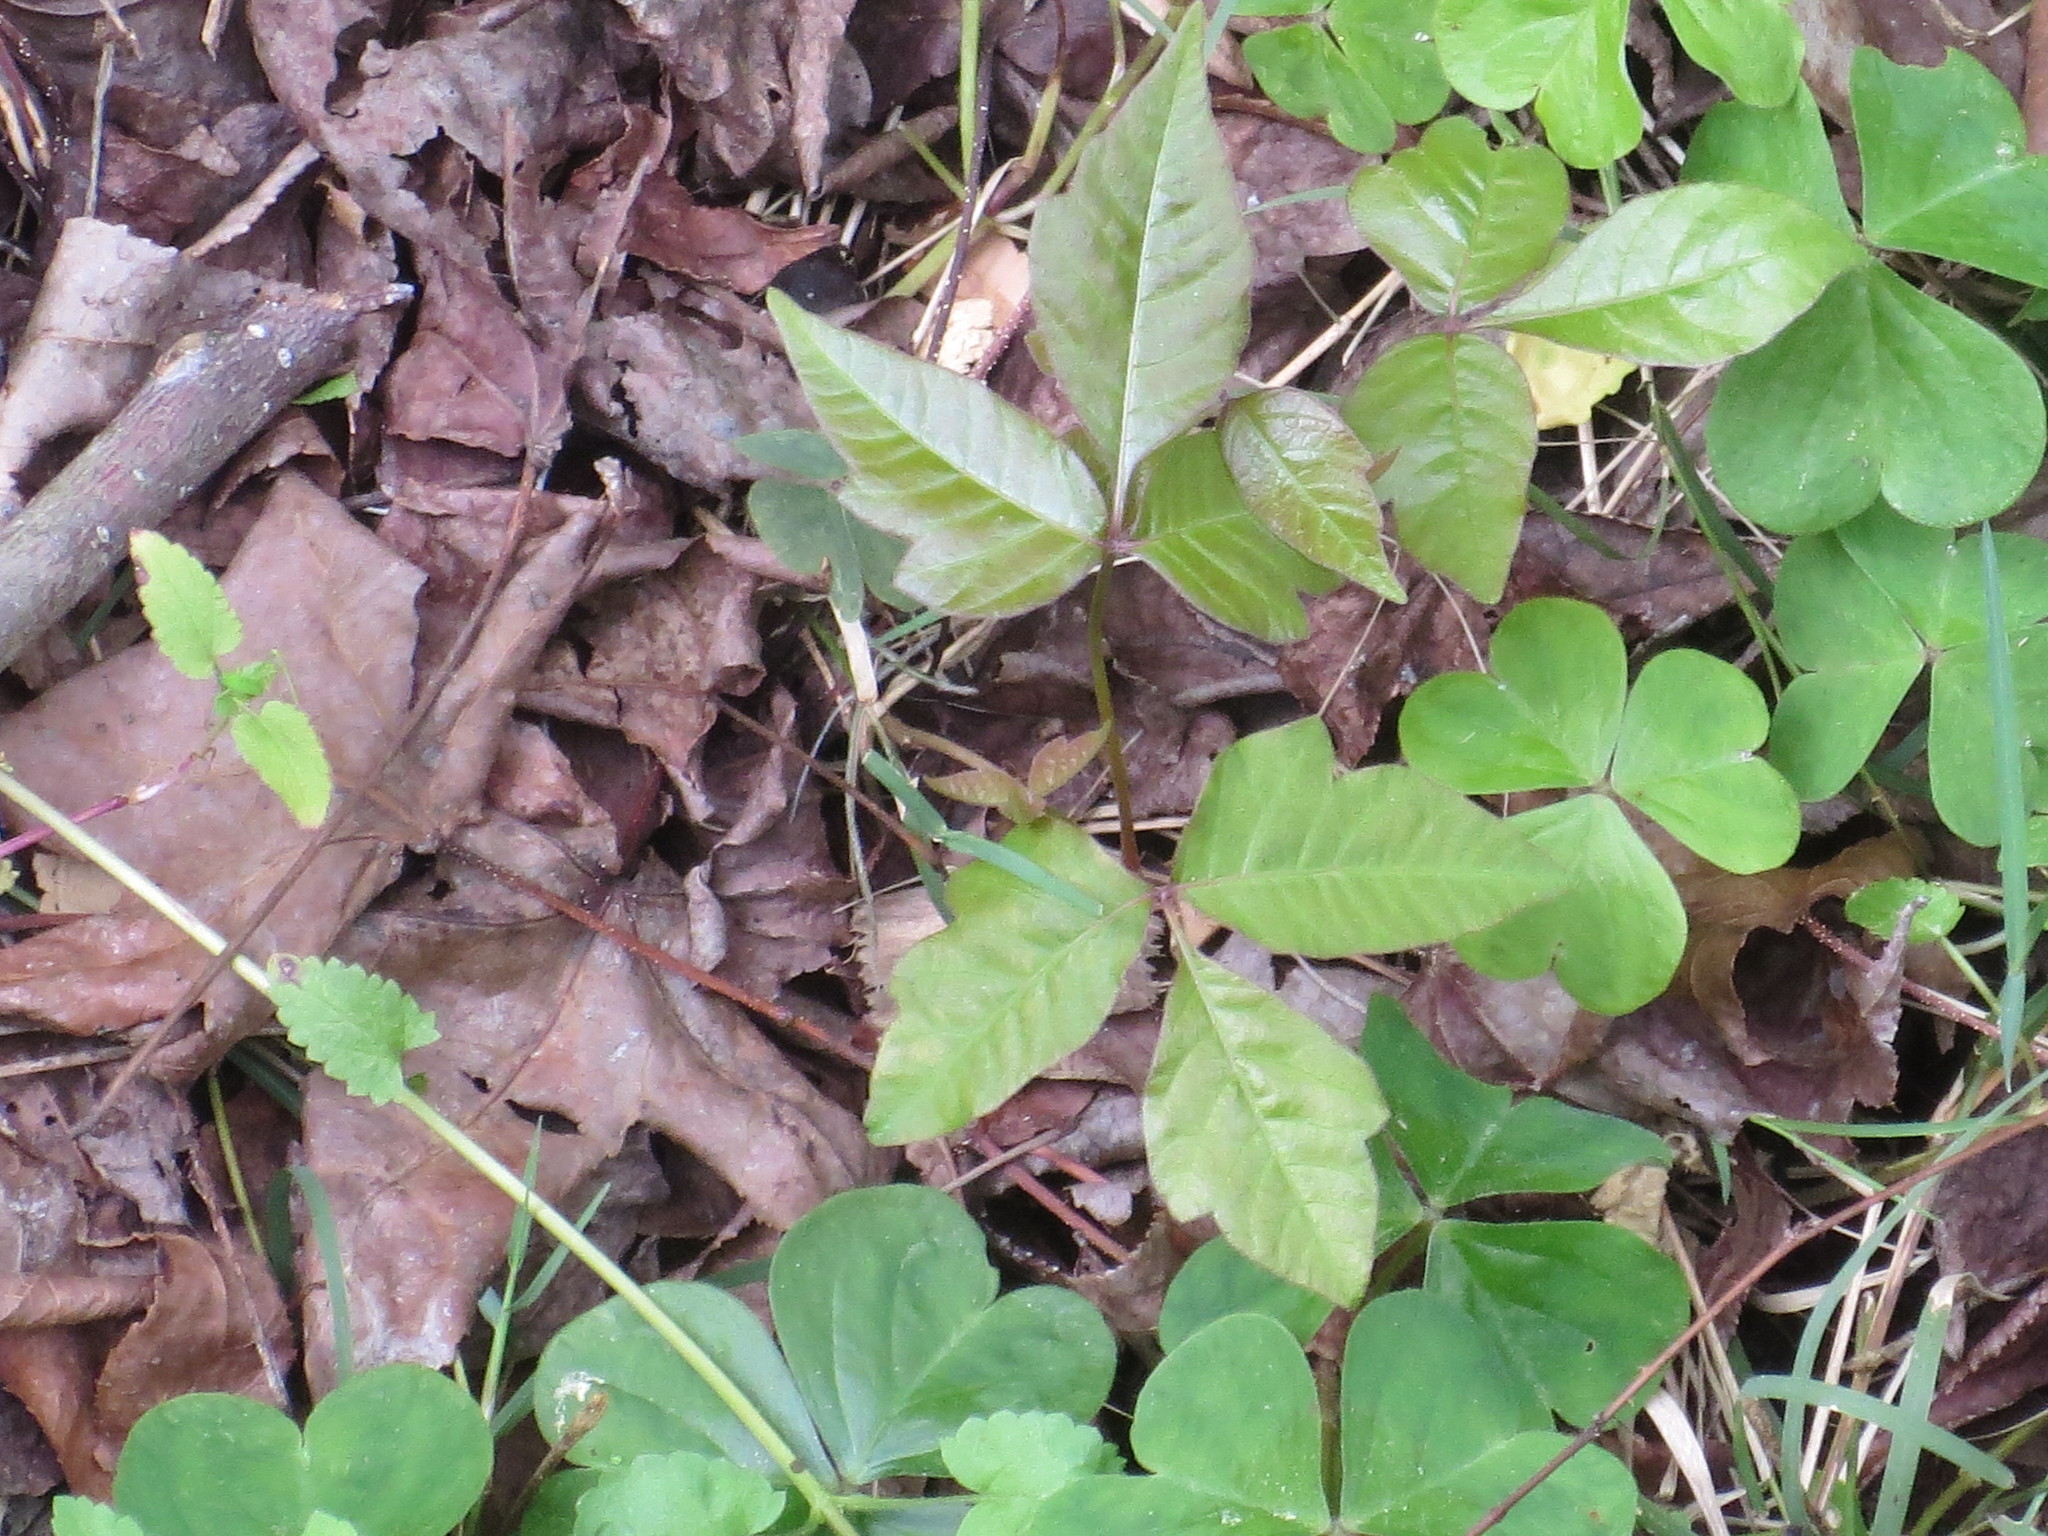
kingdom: Plantae
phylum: Tracheophyta
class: Magnoliopsida
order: Sapindales
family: Anacardiaceae
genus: Toxicodendron
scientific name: Toxicodendron radicans
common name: Poison ivy
